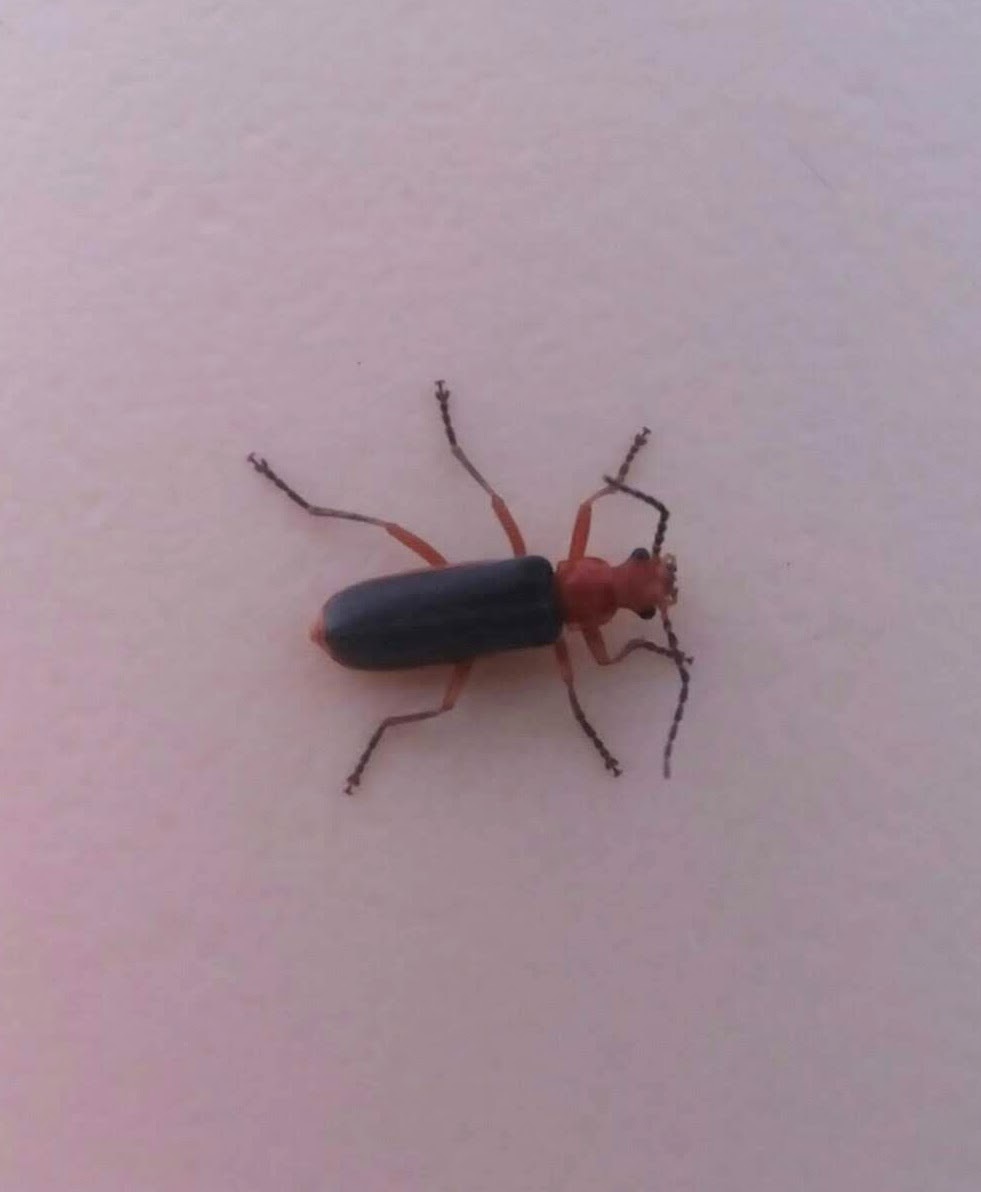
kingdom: Animalia
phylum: Arthropoda
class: Insecta
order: Coleoptera
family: Cantharidae
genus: Podabrus
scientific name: Podabrus tomentosus
